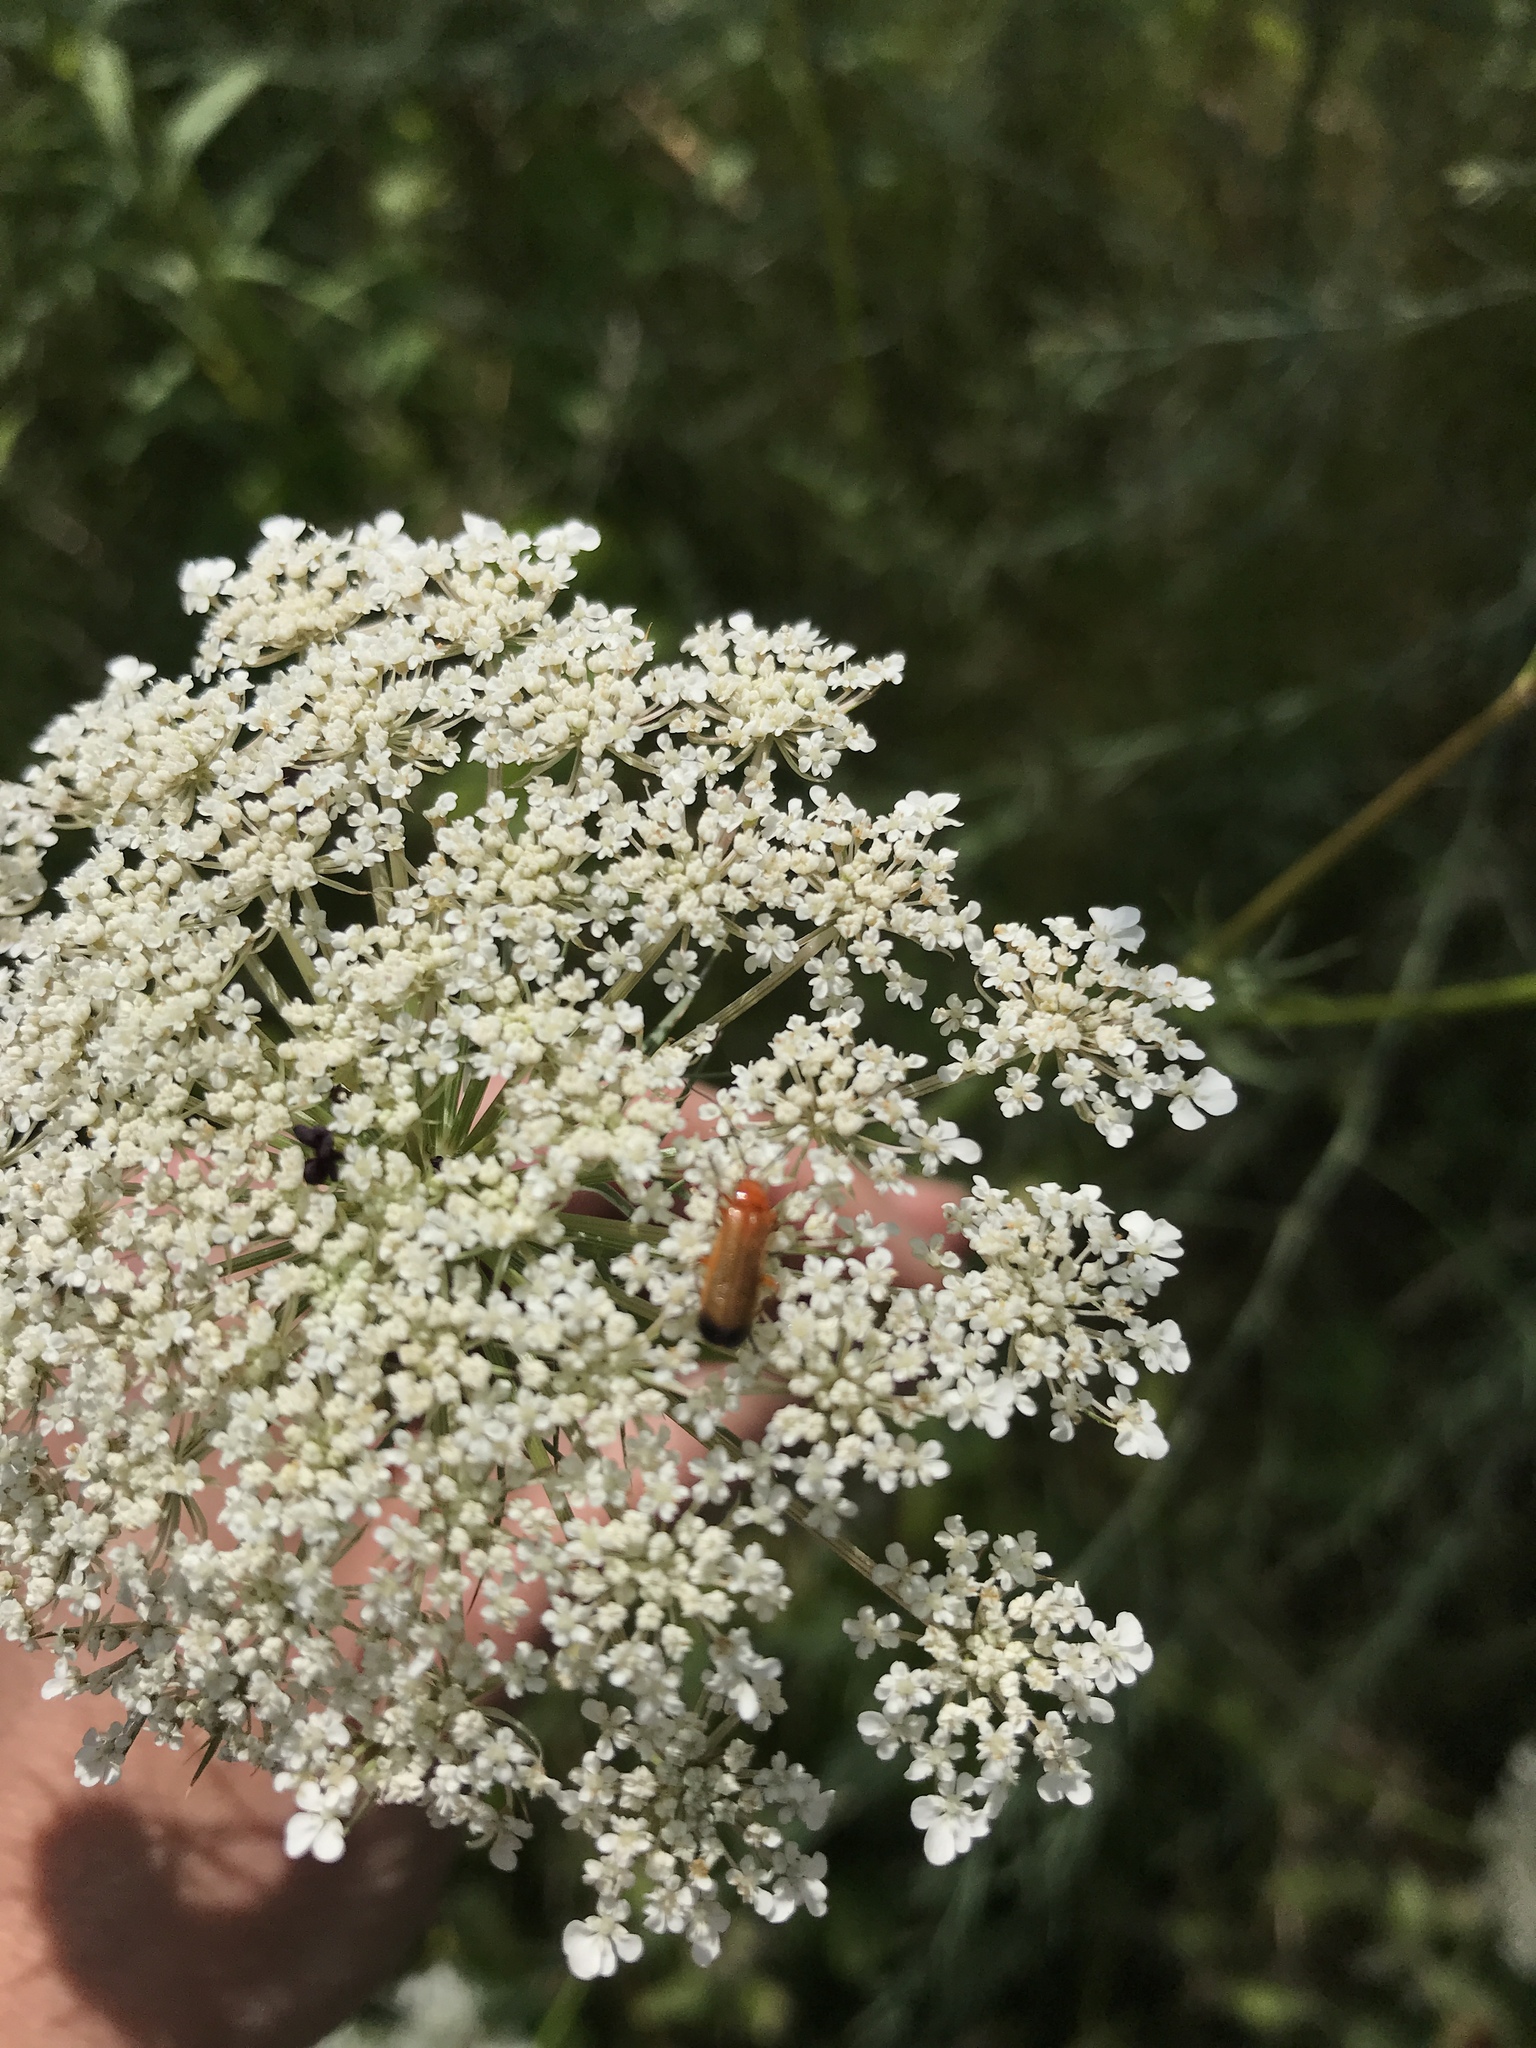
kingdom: Animalia
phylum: Arthropoda
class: Insecta
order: Coleoptera
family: Cantharidae
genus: Rhagonycha
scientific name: Rhagonycha fulva
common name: Common red soldier beetle
